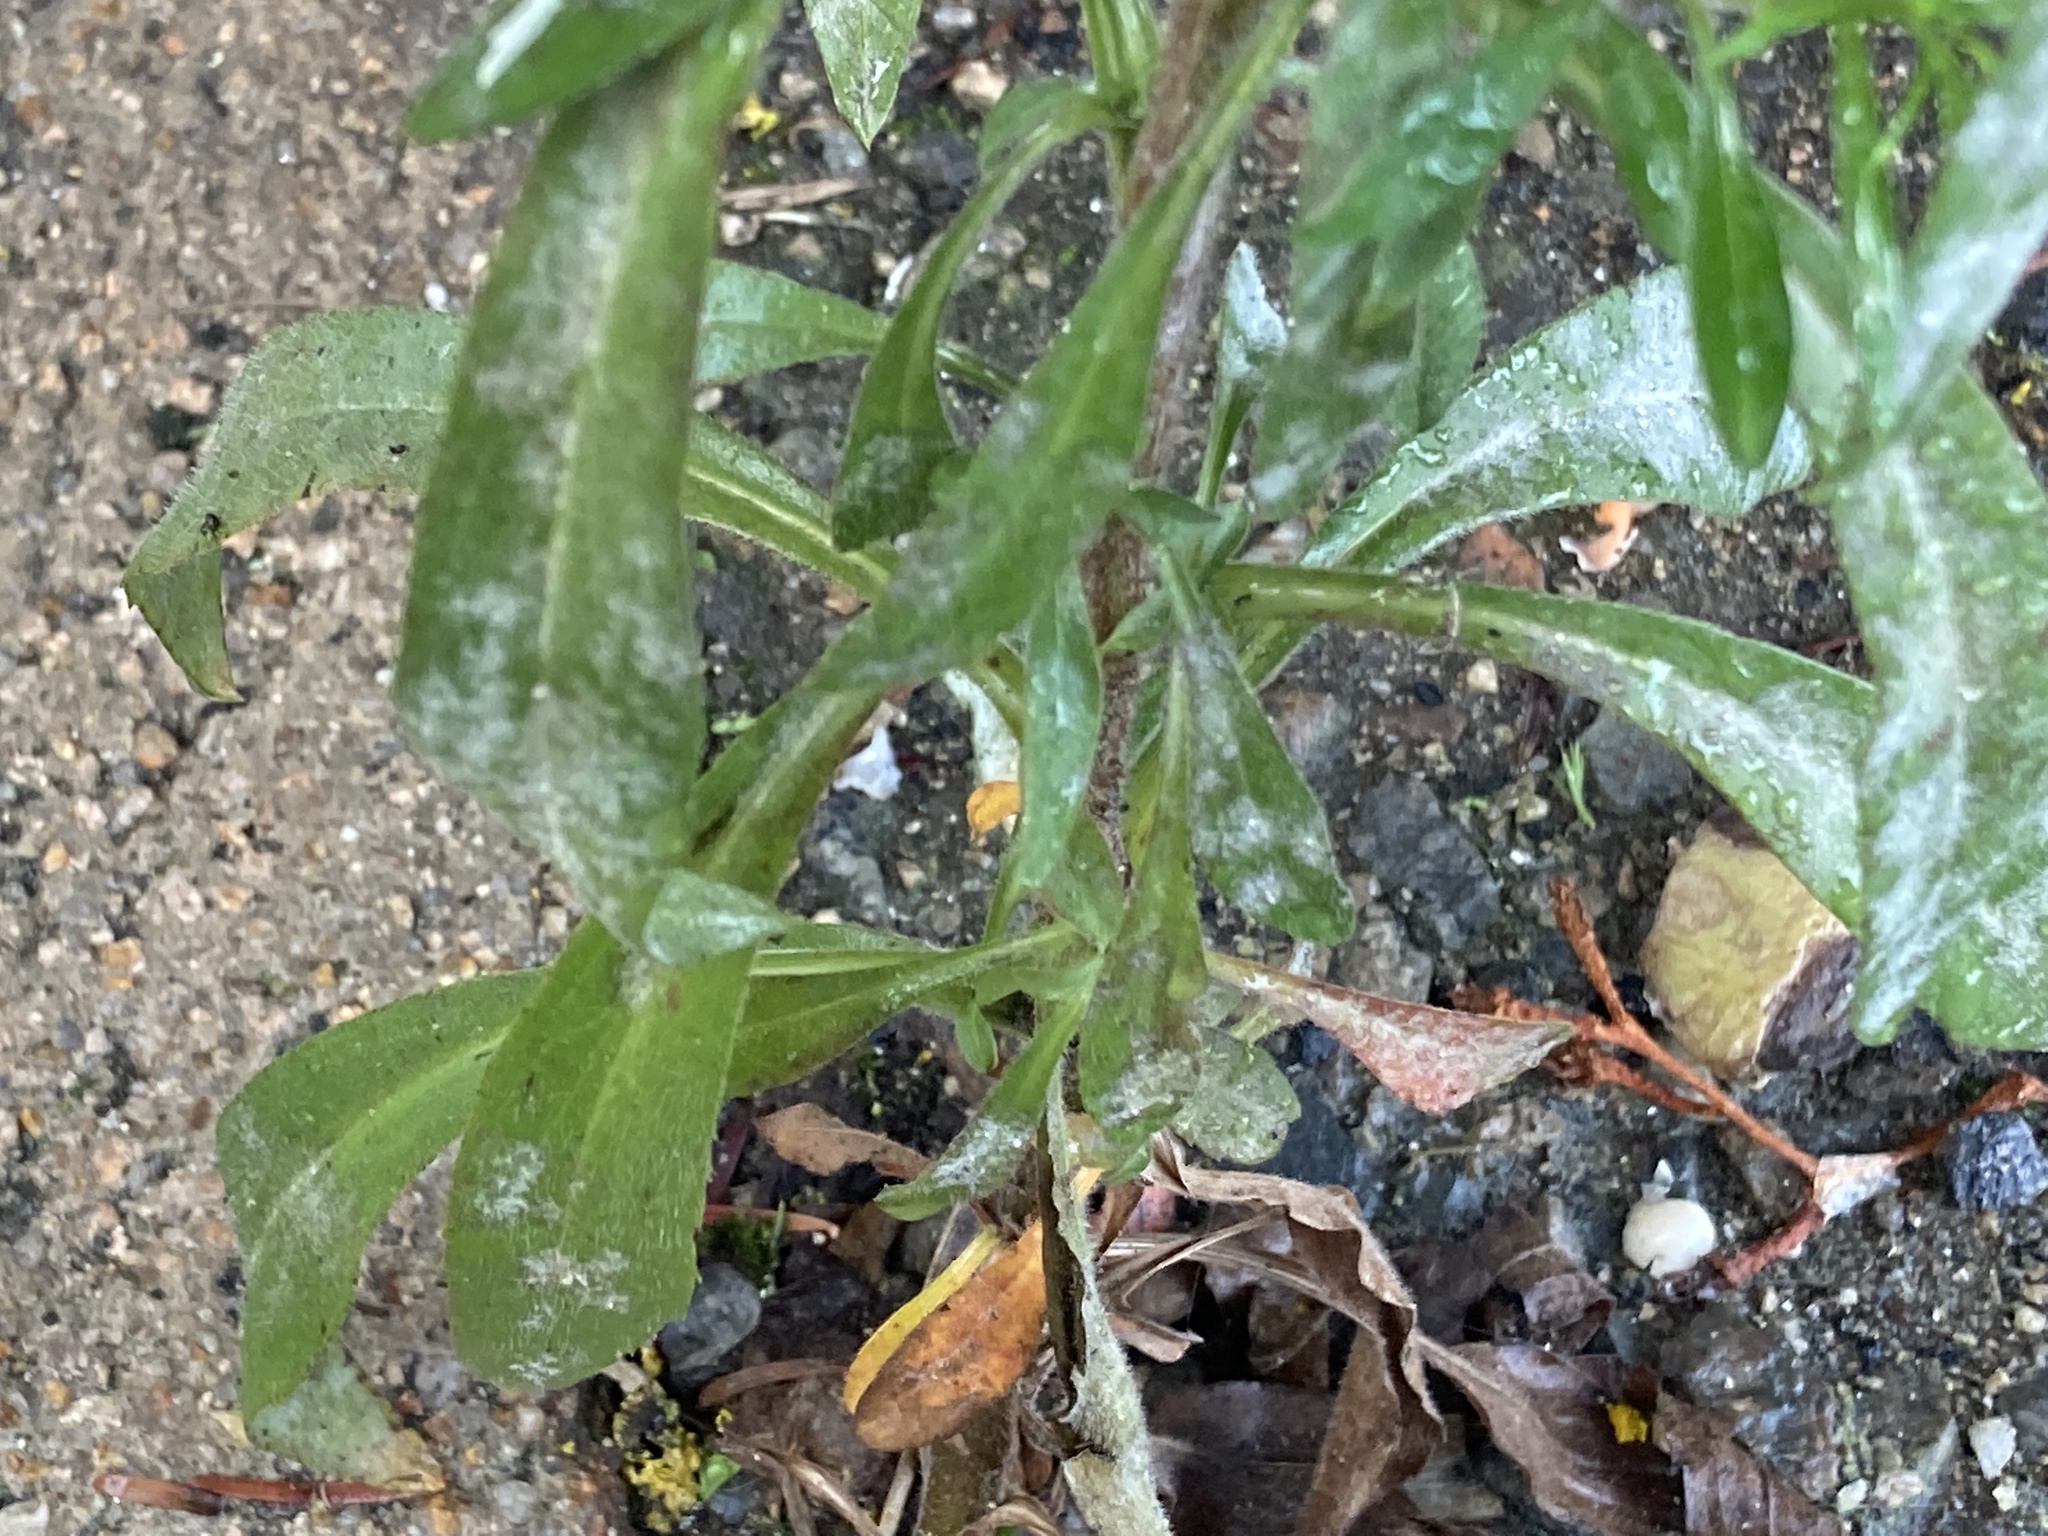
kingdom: Plantae
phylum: Tracheophyta
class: Magnoliopsida
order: Asterales
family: Asteraceae
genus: Symphyotrichum
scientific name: Symphyotrichum pilosum
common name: Awl aster
